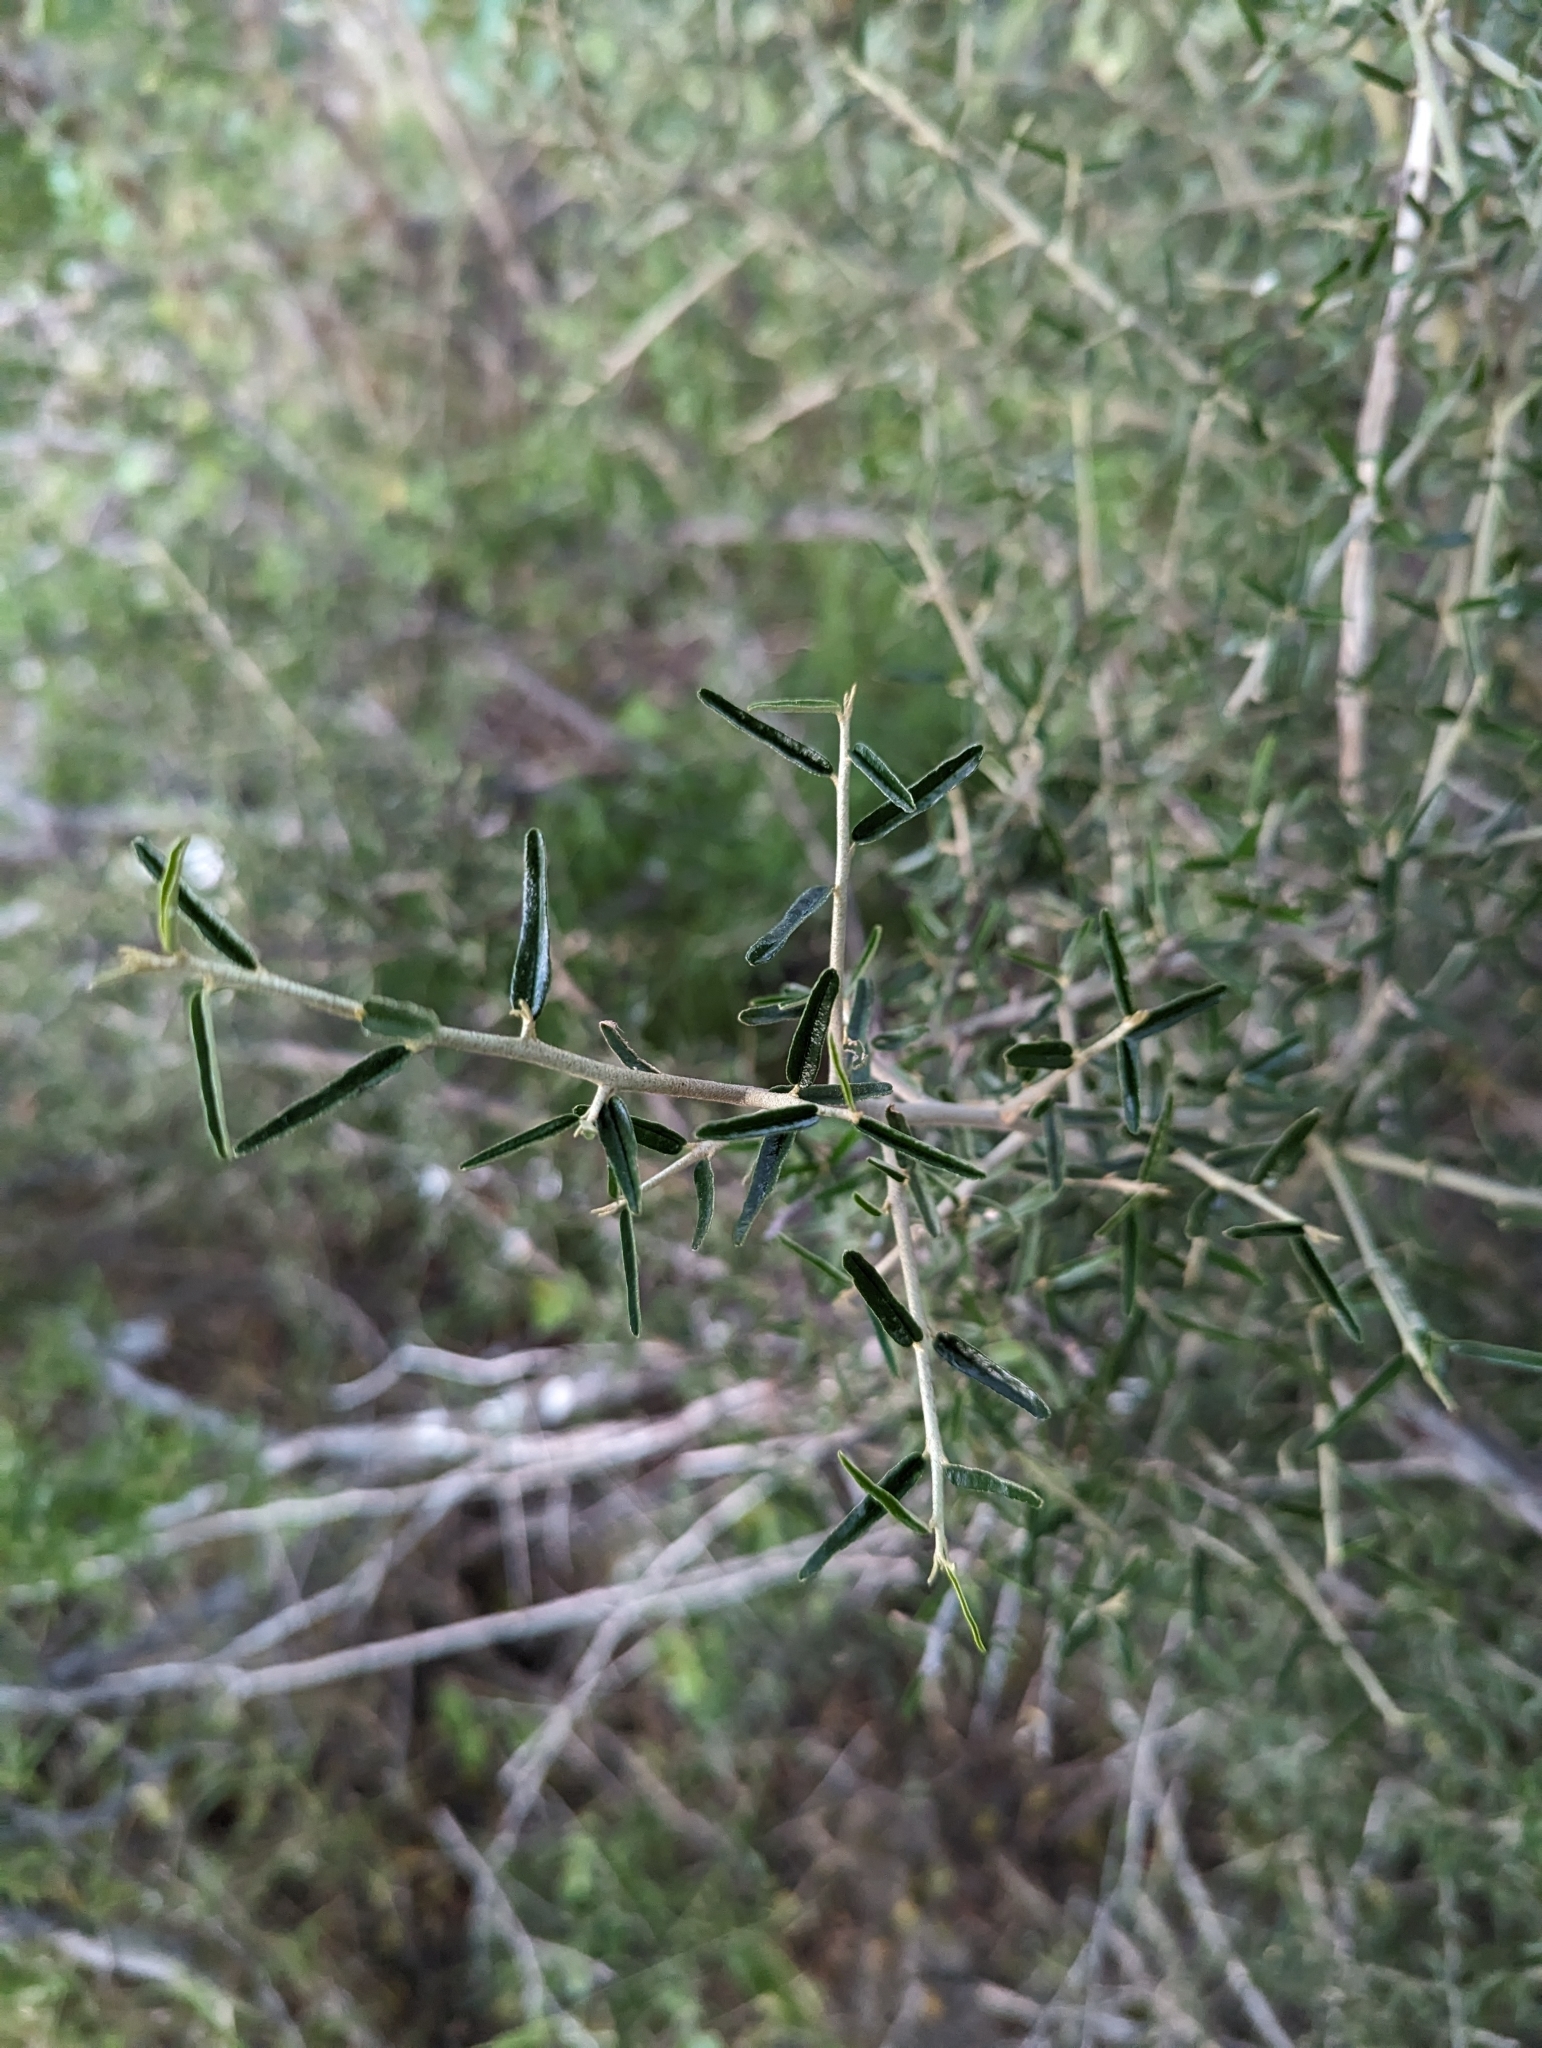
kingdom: Plantae
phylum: Tracheophyta
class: Magnoliopsida
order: Brassicales
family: Capparaceae
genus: Atamisquea
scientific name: Atamisquea emarginata
